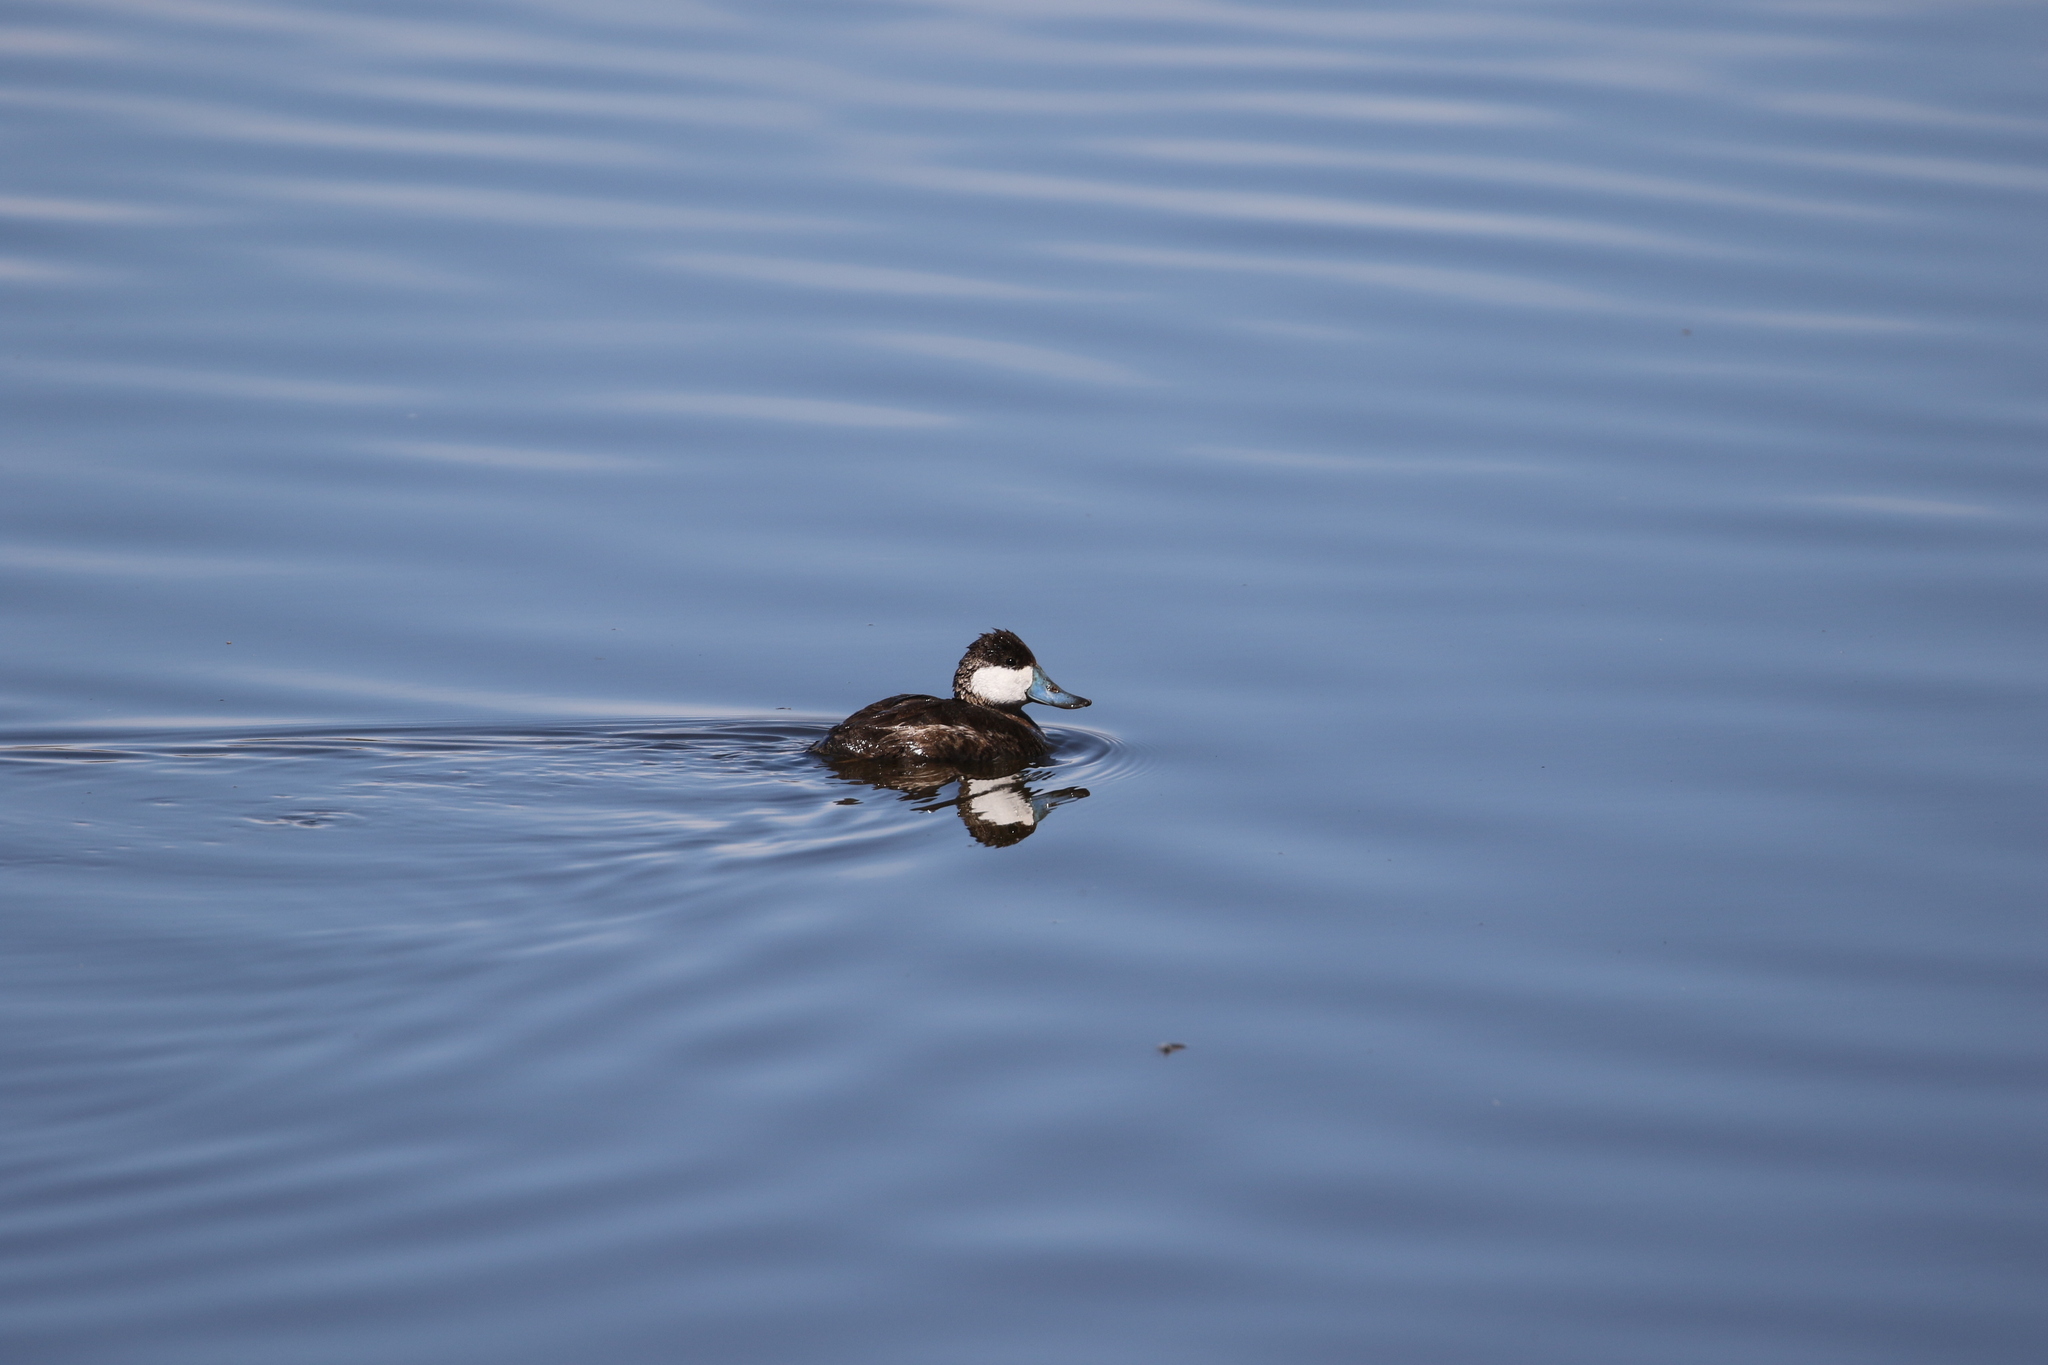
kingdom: Animalia
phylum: Chordata
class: Aves
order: Anseriformes
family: Anatidae
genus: Oxyura
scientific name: Oxyura jamaicensis
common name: Ruddy duck
